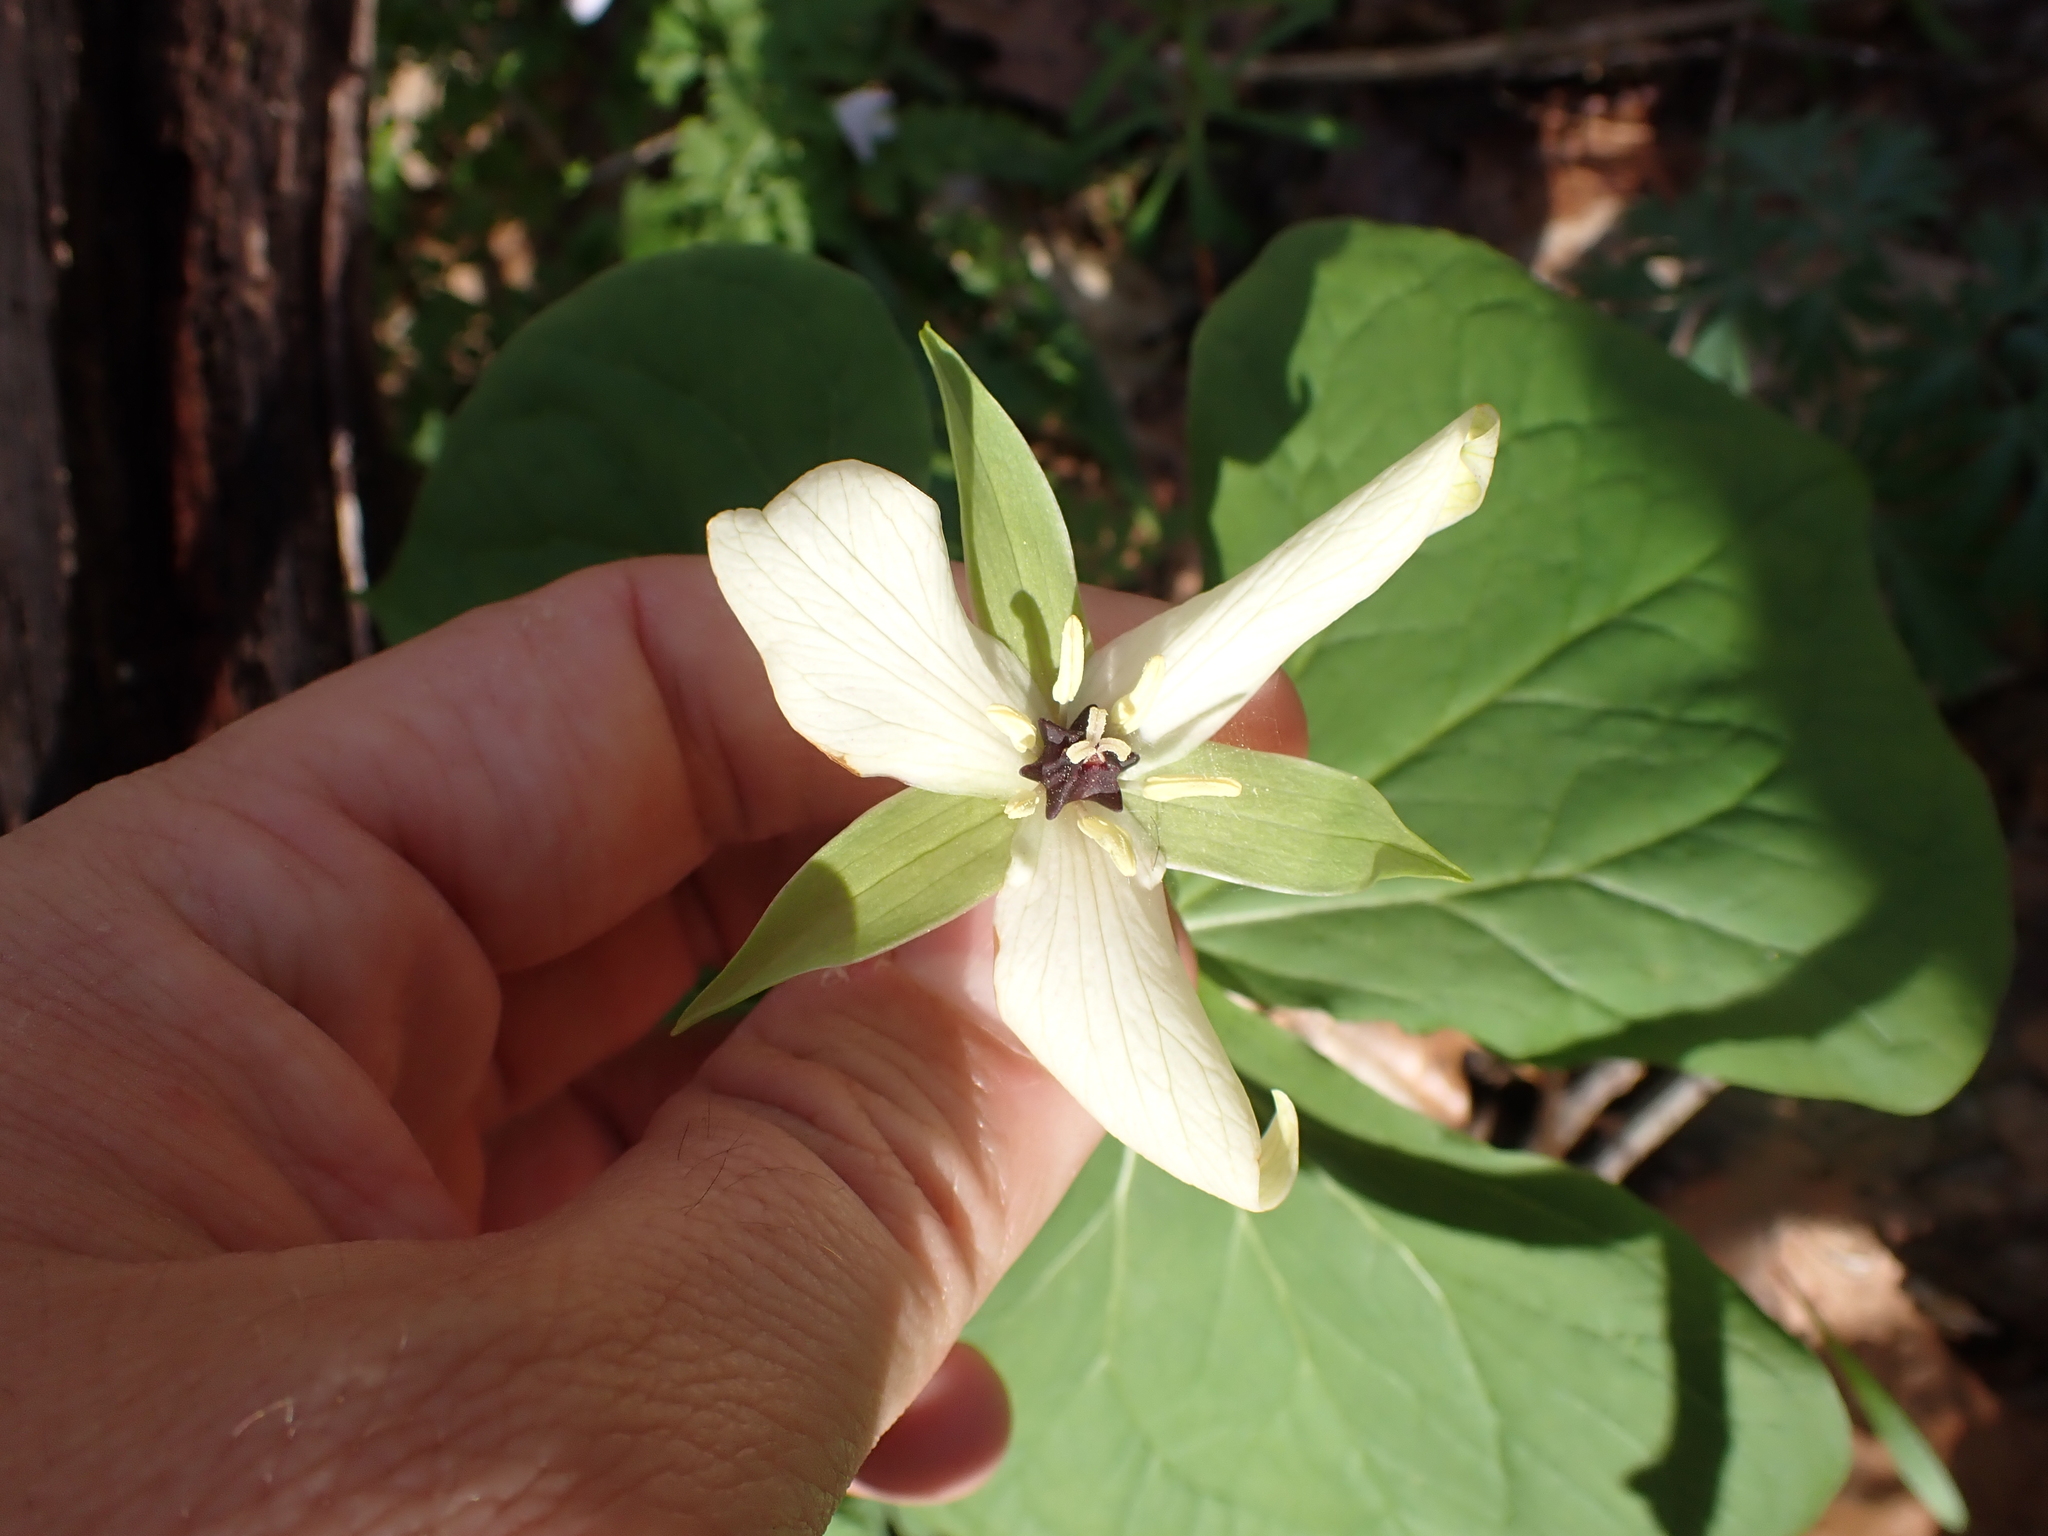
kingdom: Plantae
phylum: Tracheophyta
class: Liliopsida
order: Liliales
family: Melanthiaceae
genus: Trillium
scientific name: Trillium erectum
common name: Purple trillium
